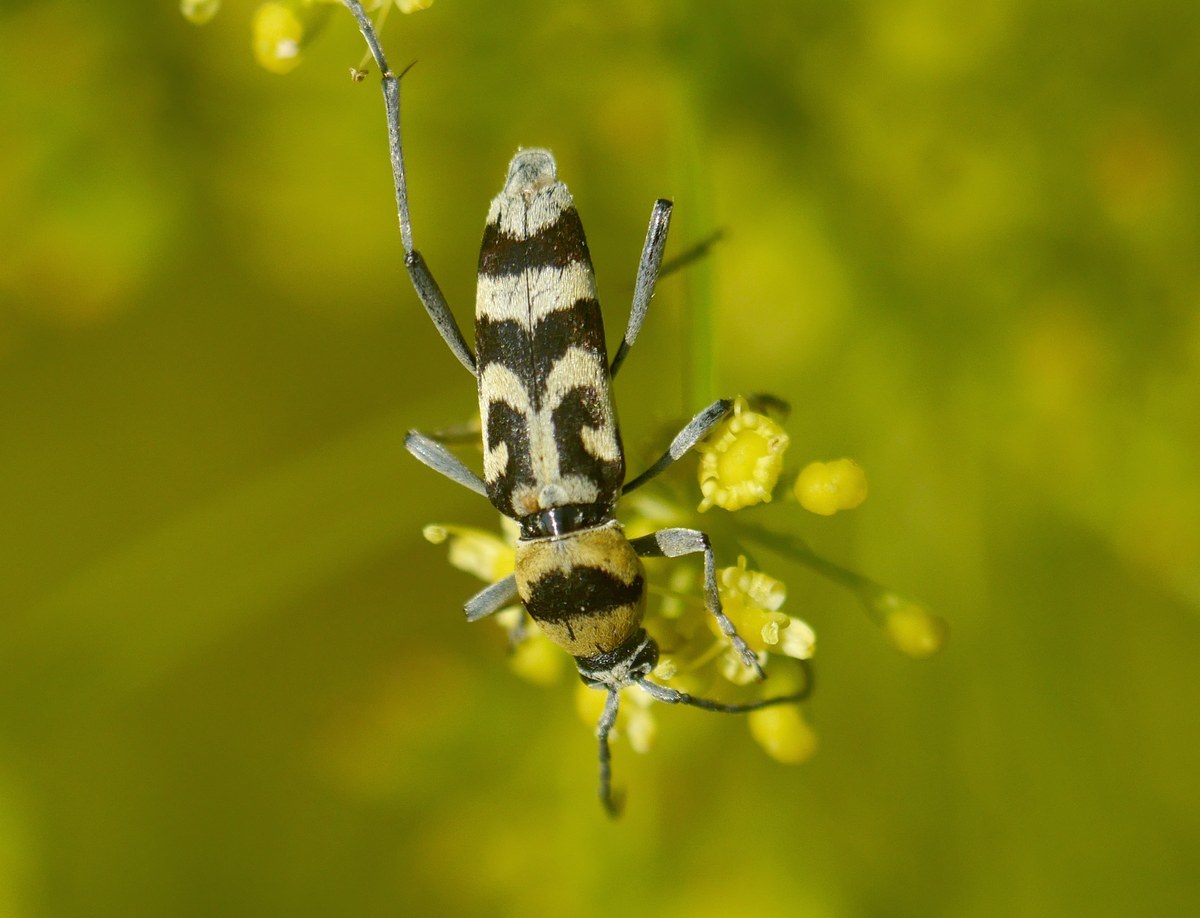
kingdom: Animalia
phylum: Arthropoda
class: Insecta
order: Coleoptera
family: Cerambycidae
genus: Chlorophorus
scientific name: Chlorophorus varius
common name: Grape wood borer
